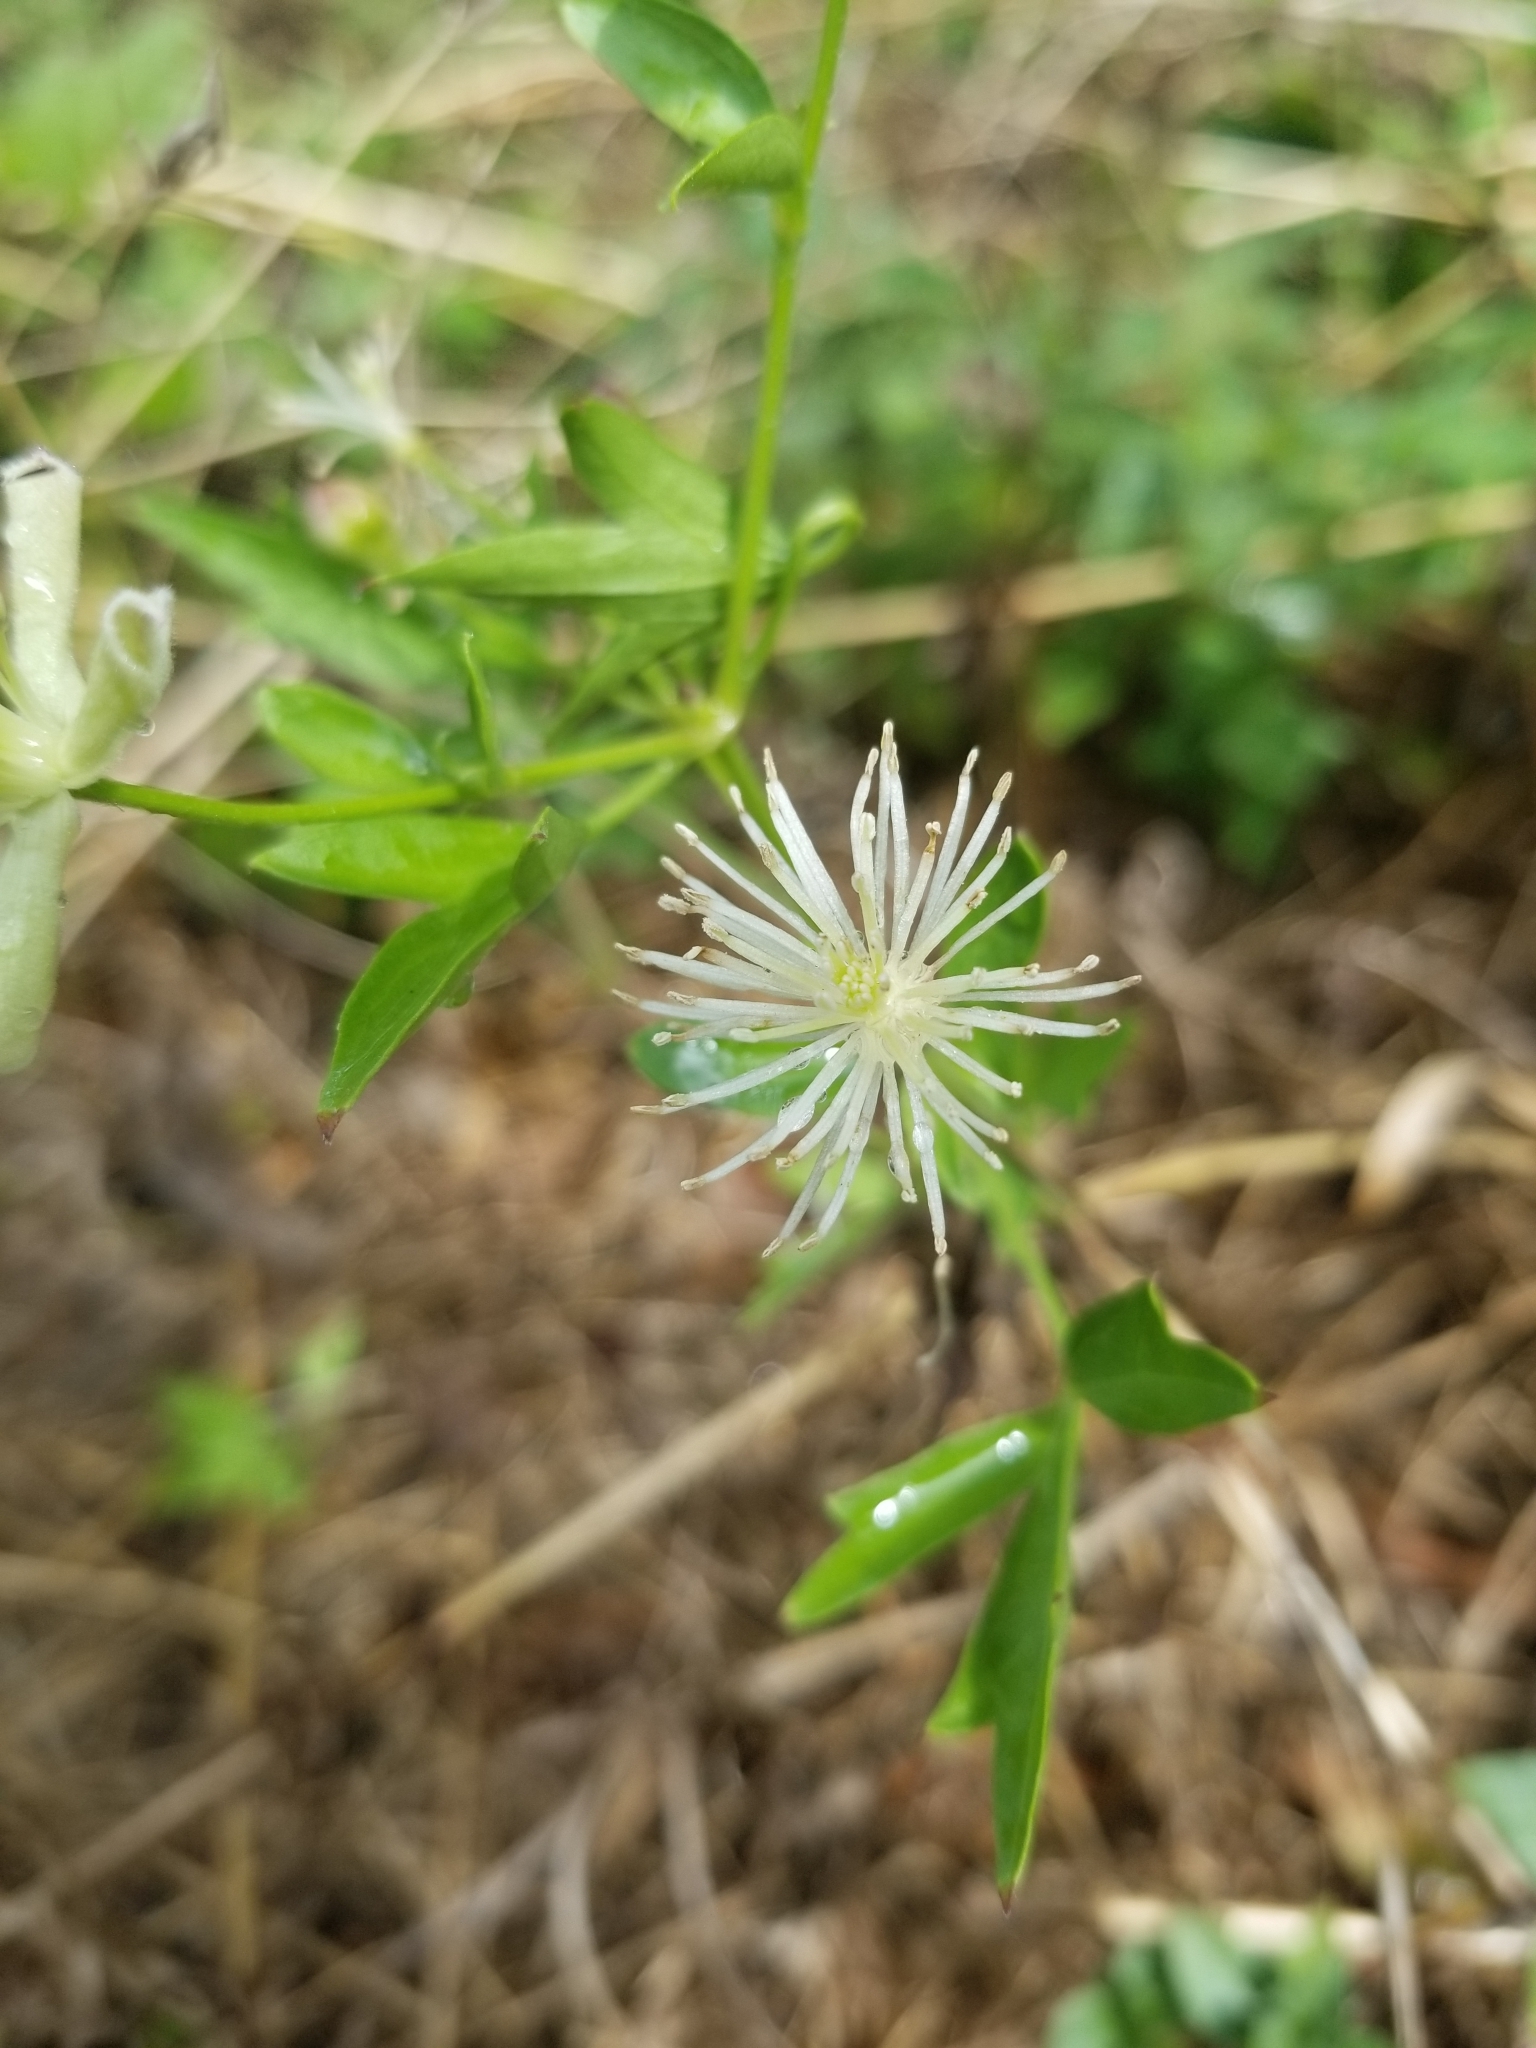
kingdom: Plantae
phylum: Tracheophyta
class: Magnoliopsida
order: Ranunculales
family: Ranunculaceae
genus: Clematis
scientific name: Clematis drummondii
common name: Texas virgin's bower
